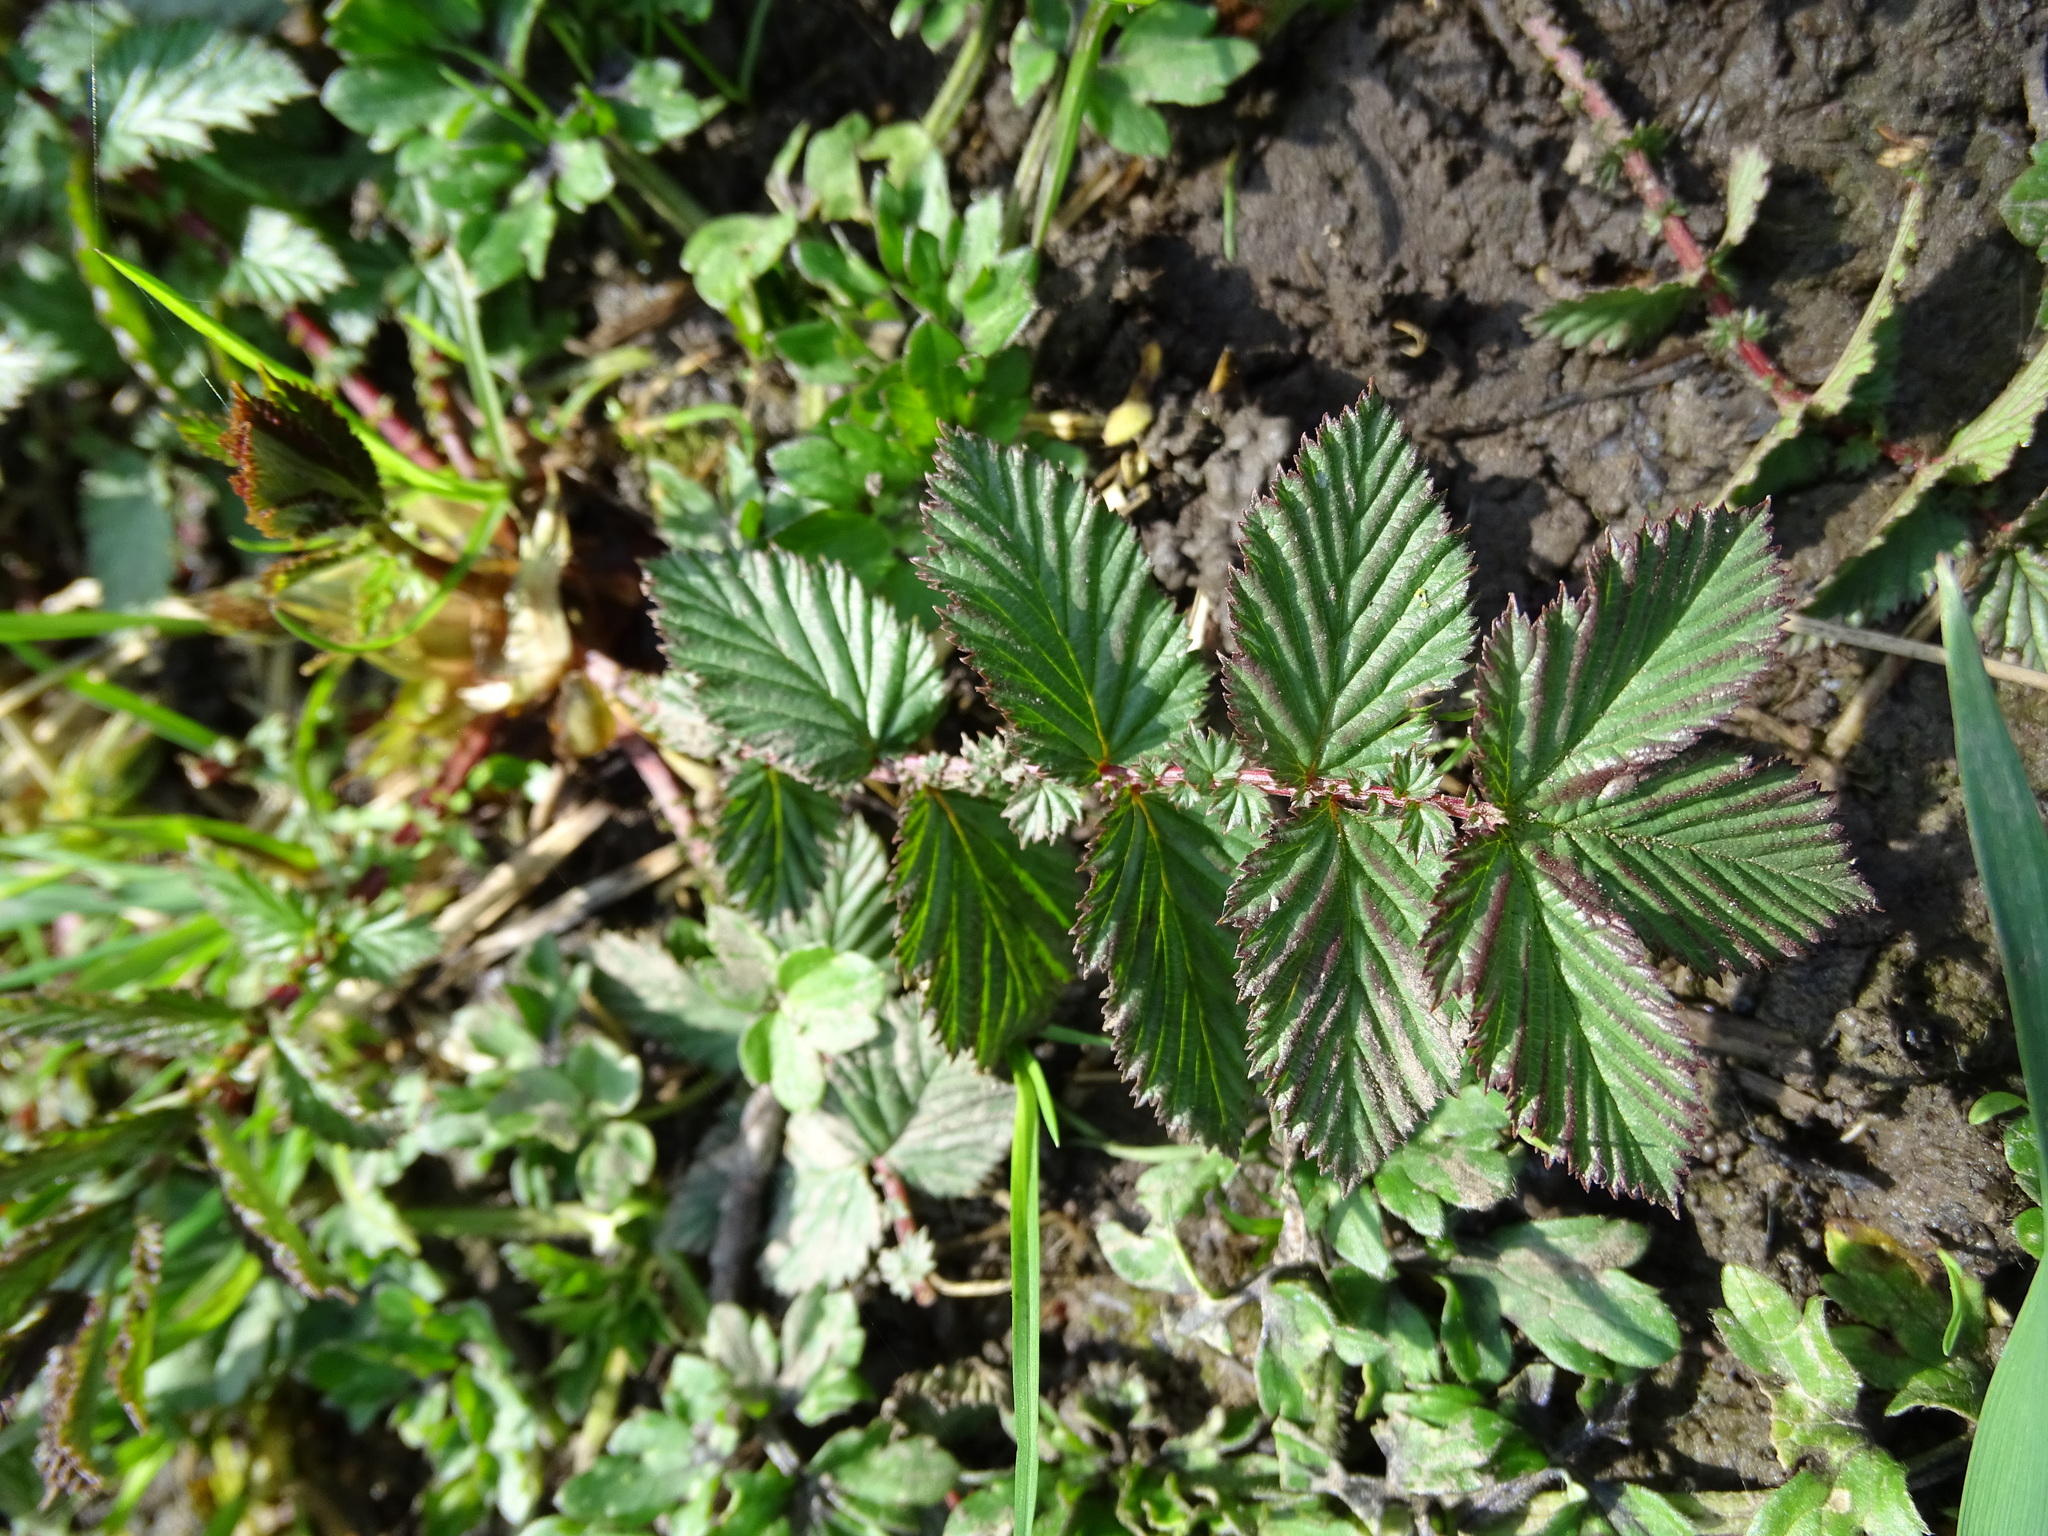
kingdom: Plantae
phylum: Tracheophyta
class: Magnoliopsida
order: Rosales
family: Rosaceae
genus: Filipendula
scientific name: Filipendula ulmaria
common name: Meadowsweet
